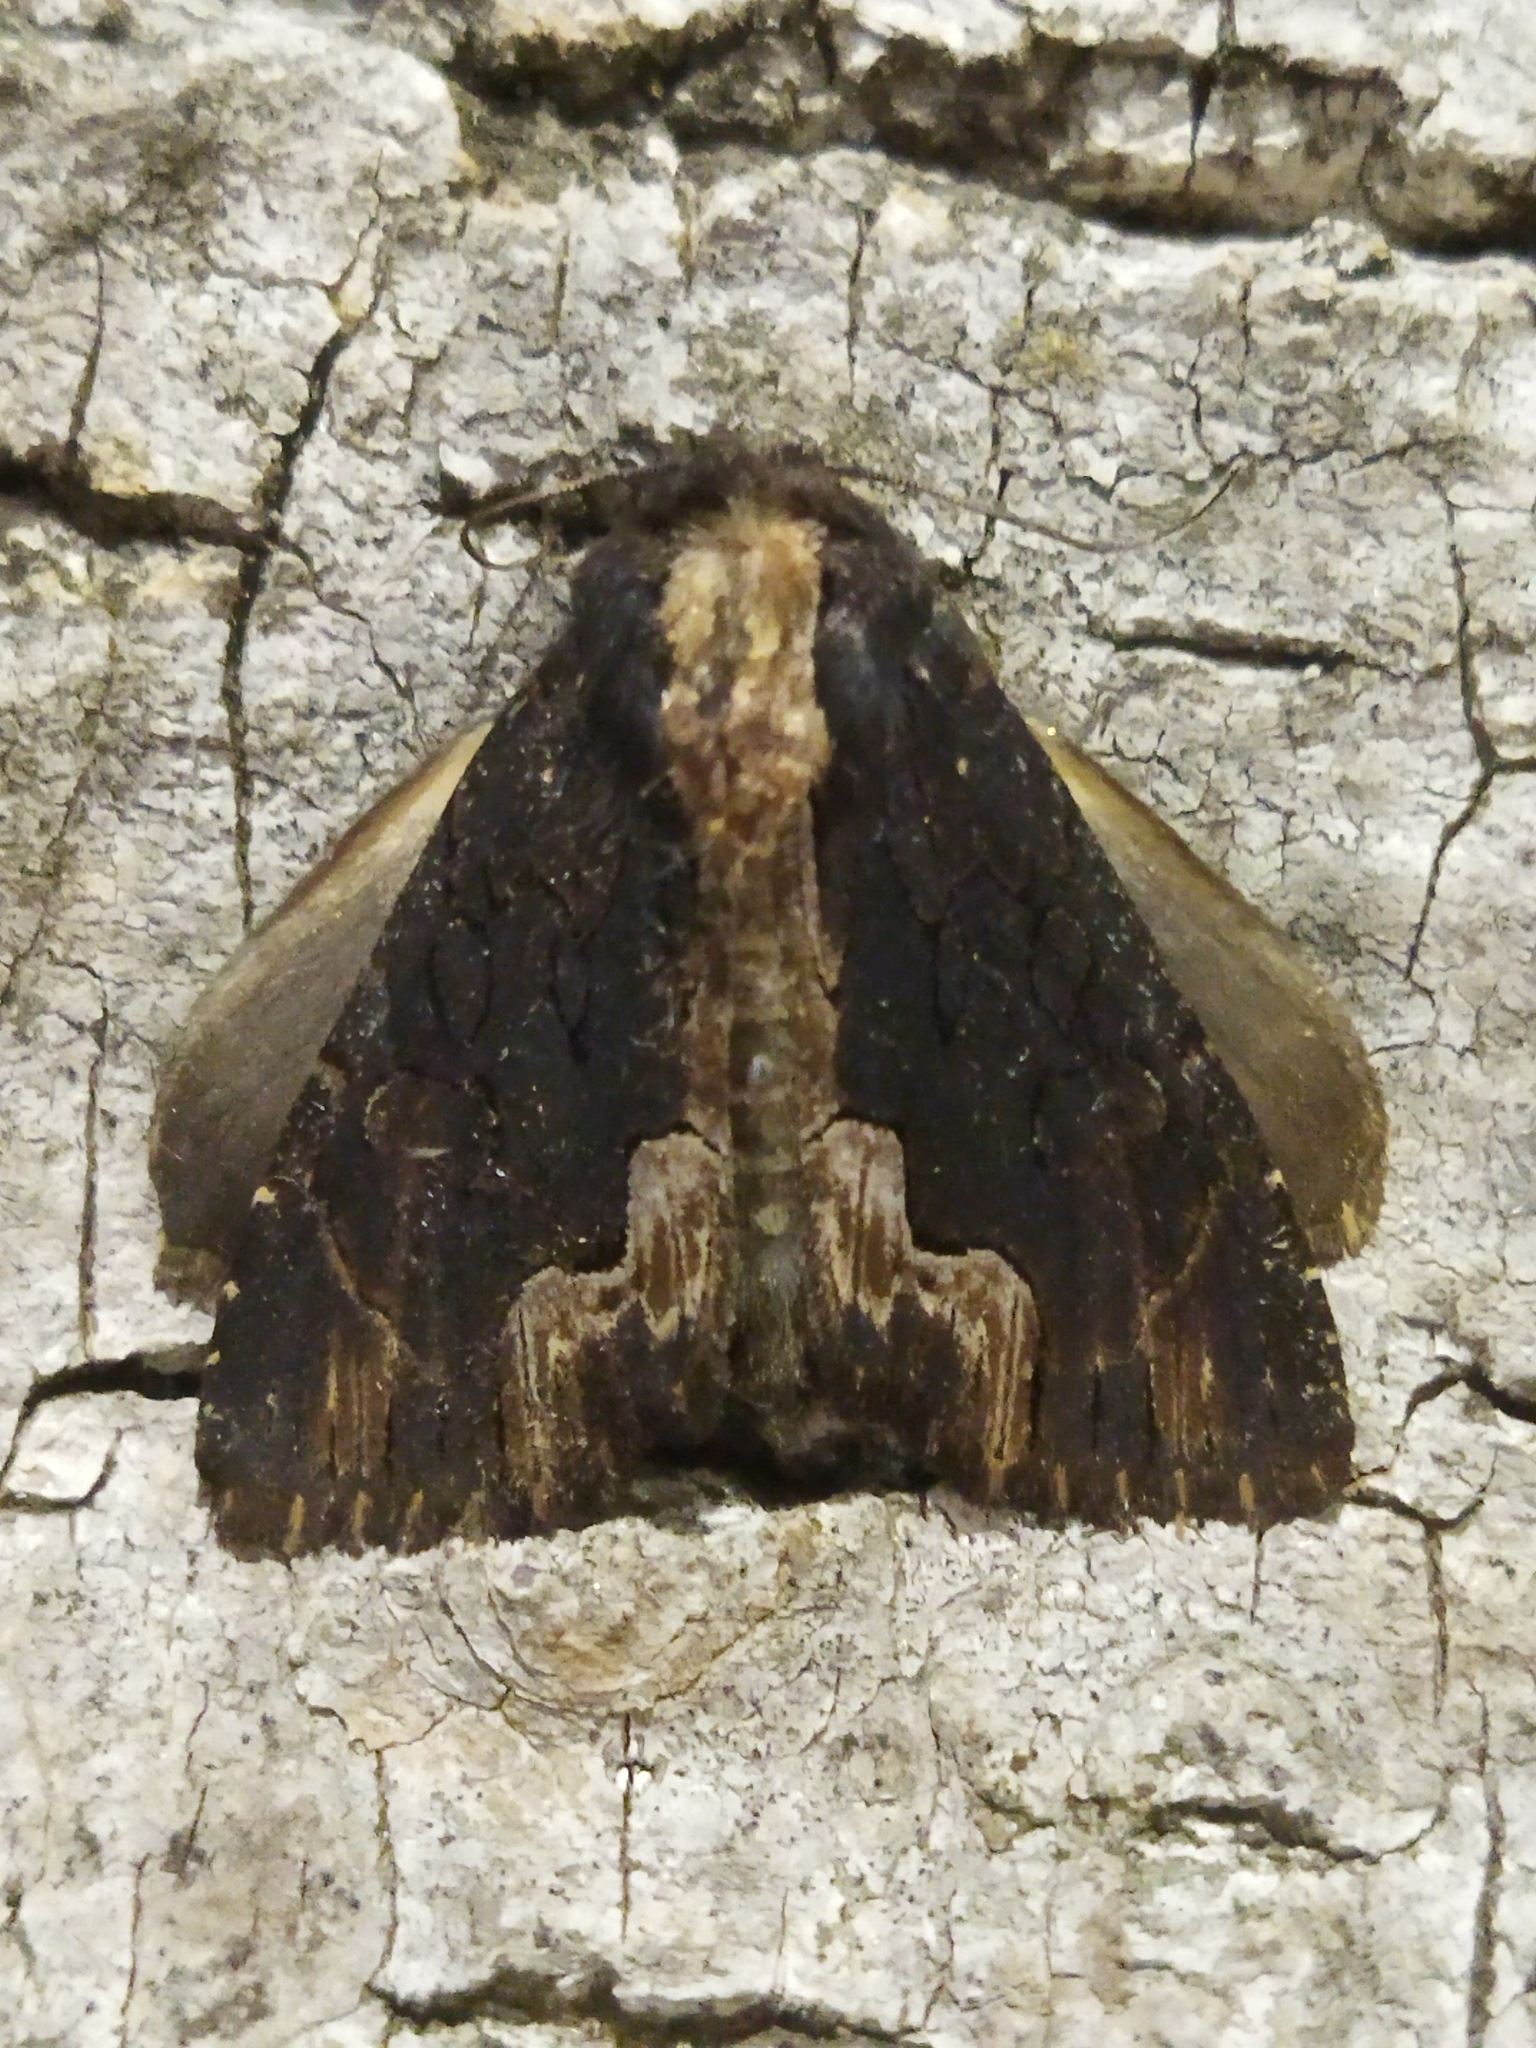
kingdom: Animalia
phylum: Arthropoda
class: Insecta
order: Lepidoptera
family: Noctuidae
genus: Dypterygia
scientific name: Dypterygia scabriuscula
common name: Bird's wing
